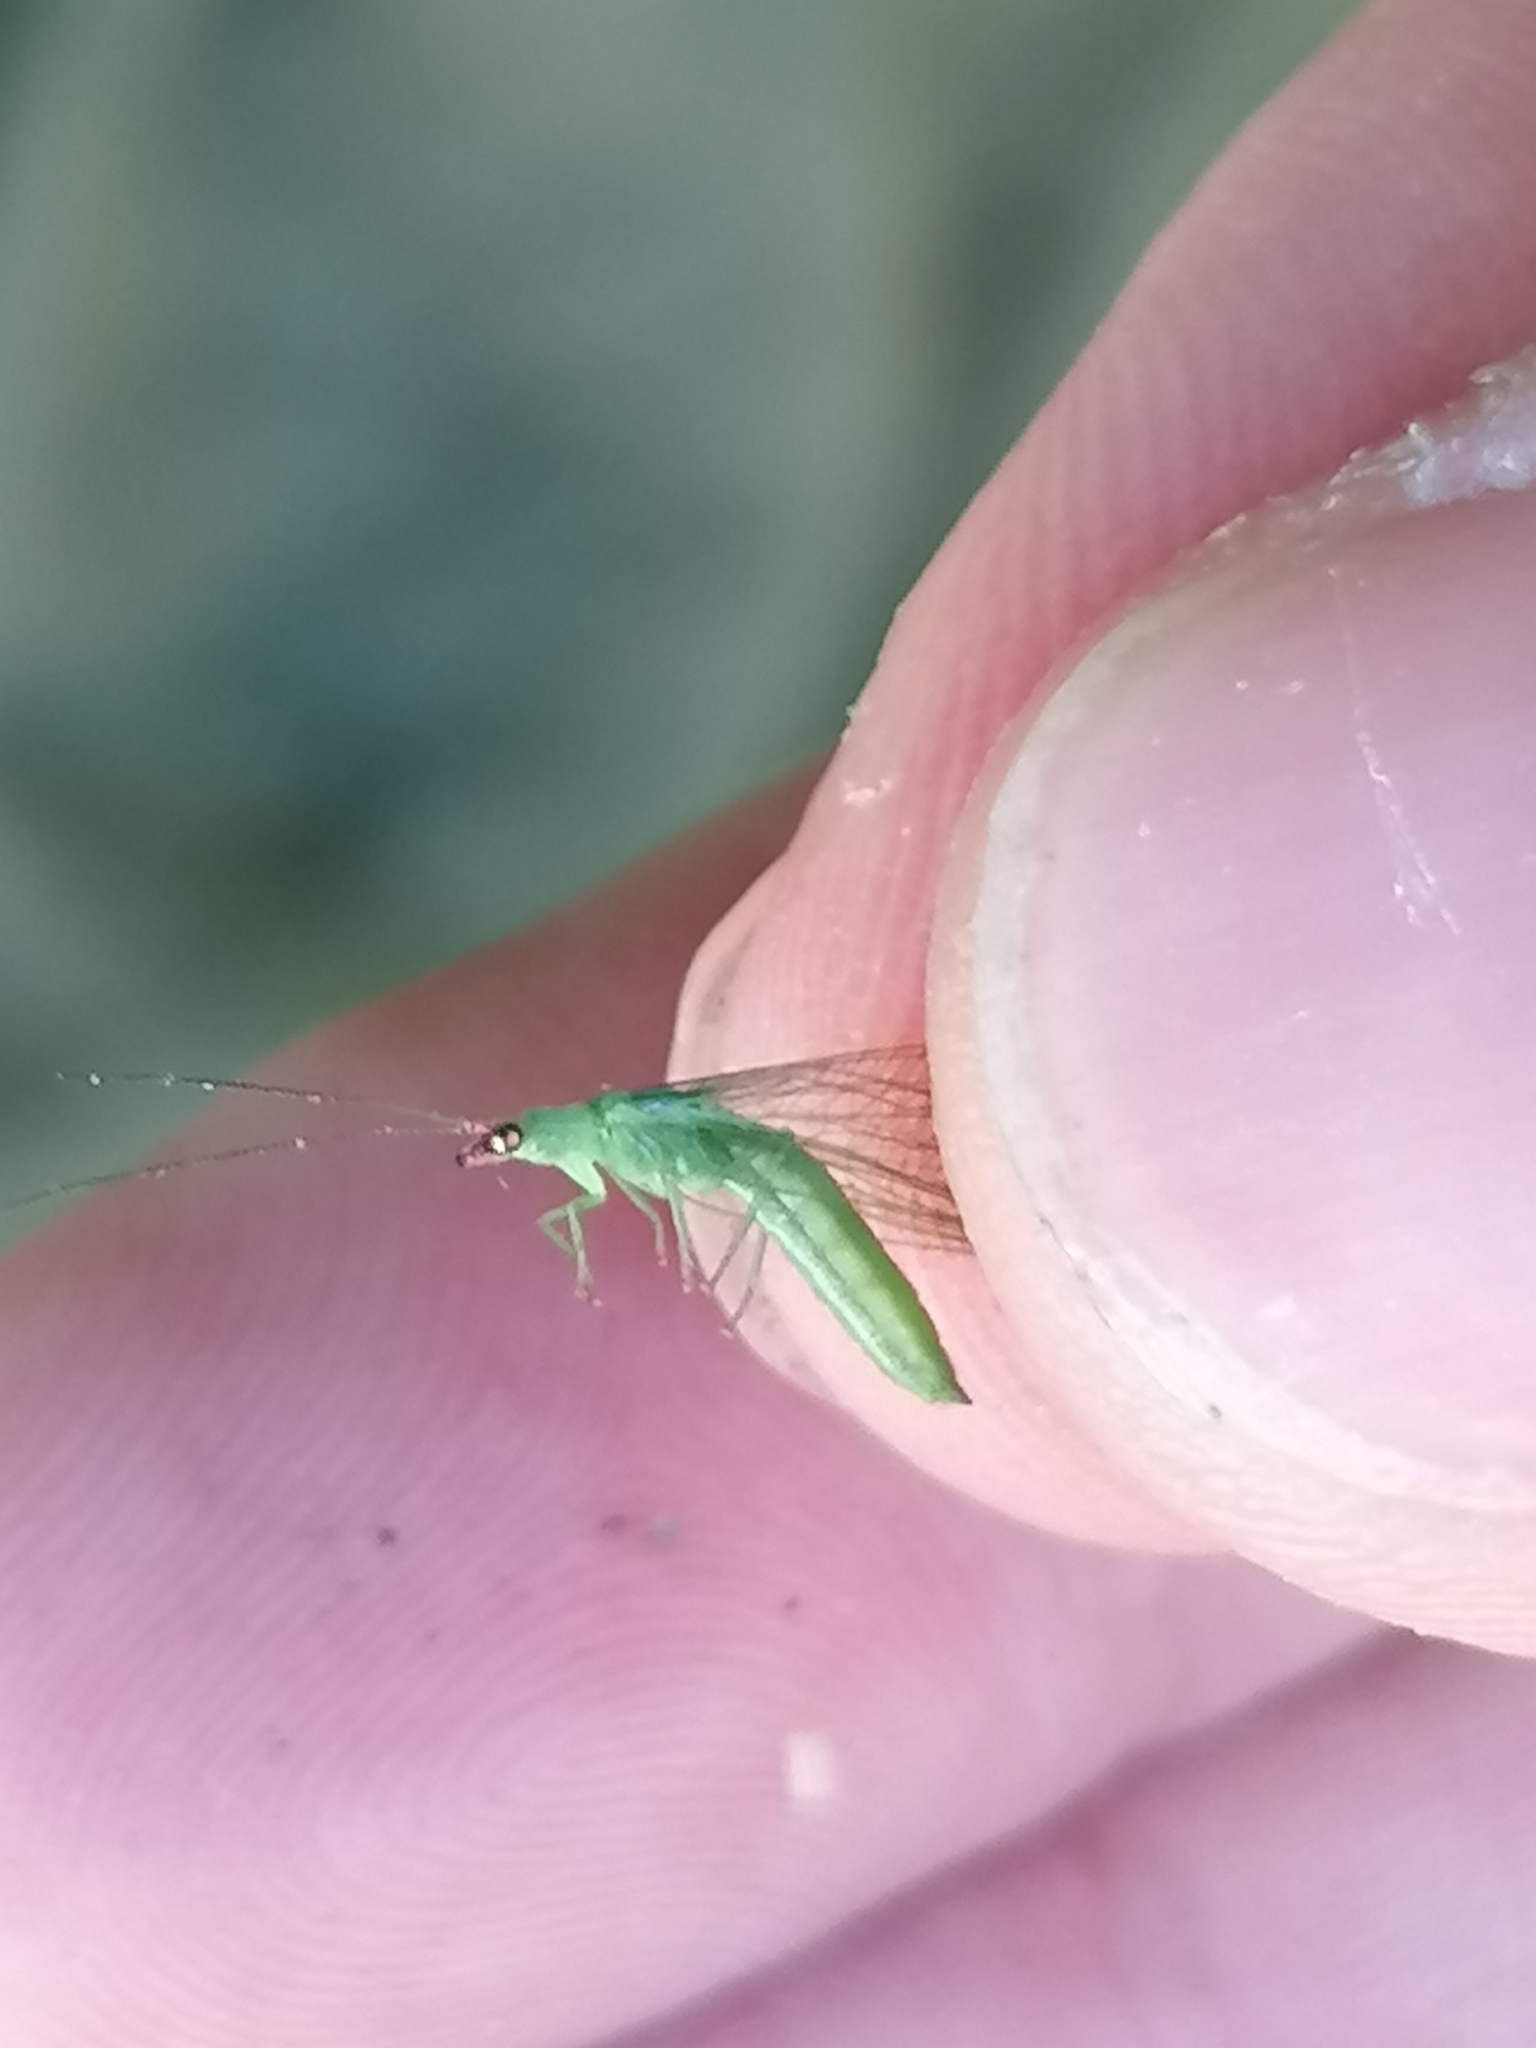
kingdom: Animalia
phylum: Arthropoda
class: Insecta
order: Neuroptera
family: Chrysopidae
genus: Peyerimhoffina
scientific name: Peyerimhoffina gracilis
